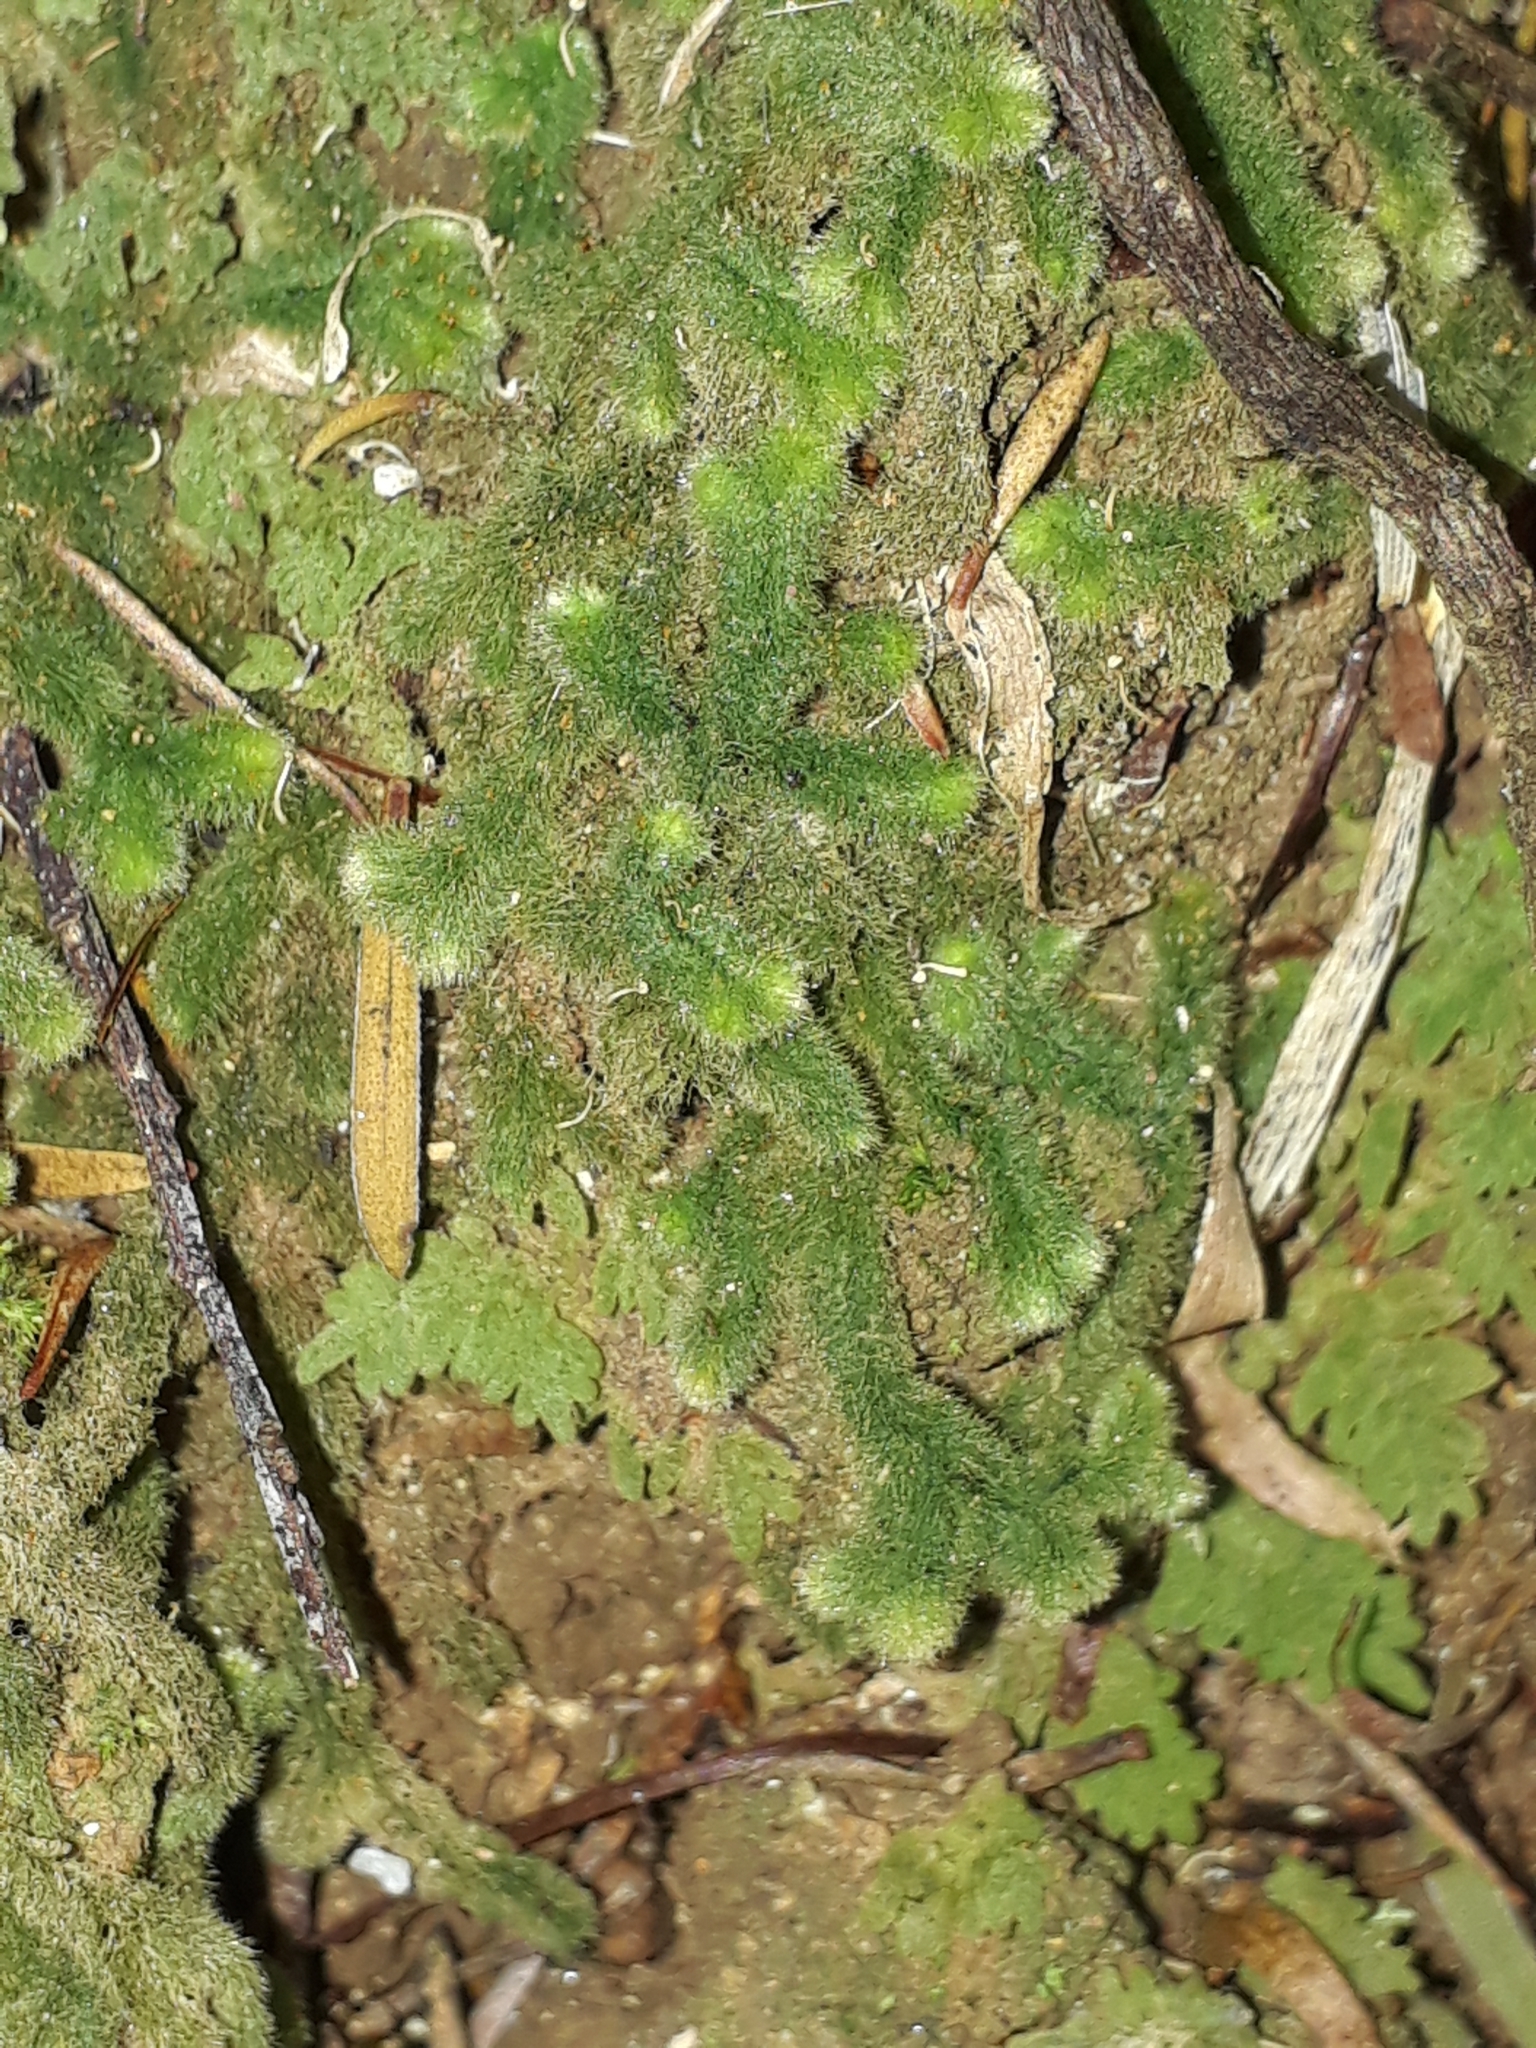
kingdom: Plantae
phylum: Marchantiophyta
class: Jungermanniopsida
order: Jungermanniales
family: Trichocoleaceae
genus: Leiomitra
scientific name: Leiomitra lanata
